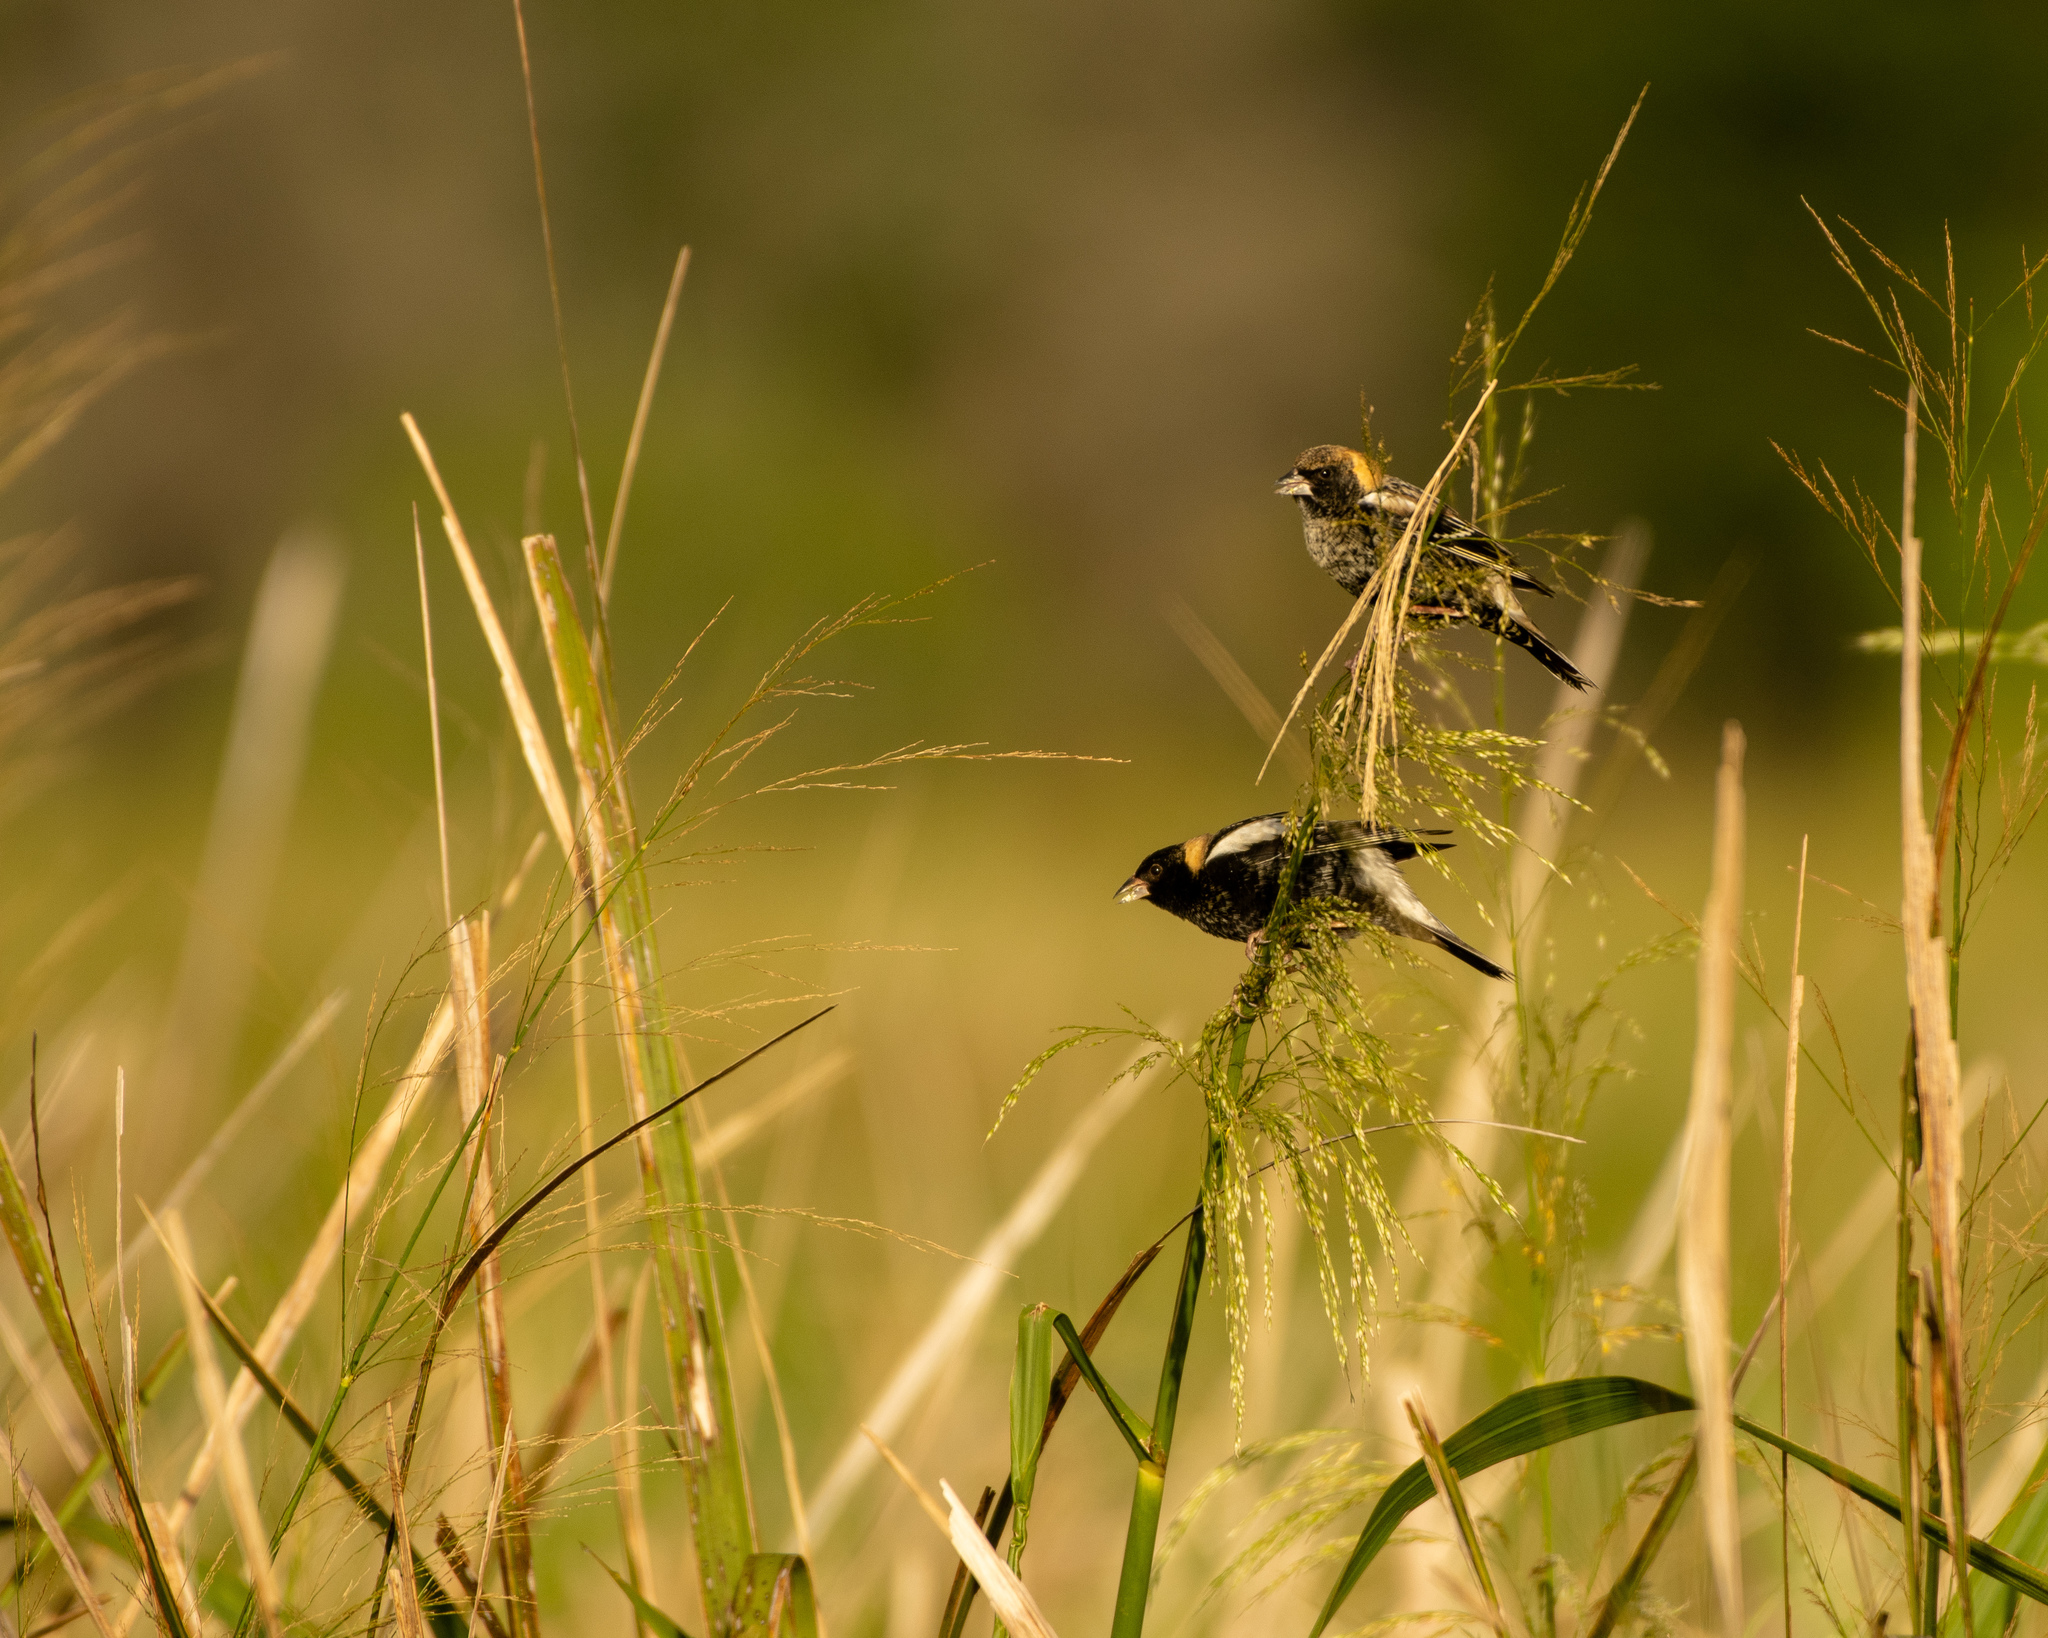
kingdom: Animalia
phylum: Chordata
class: Aves
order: Passeriformes
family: Icteridae
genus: Dolichonyx
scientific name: Dolichonyx oryzivorus
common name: Bobolink
